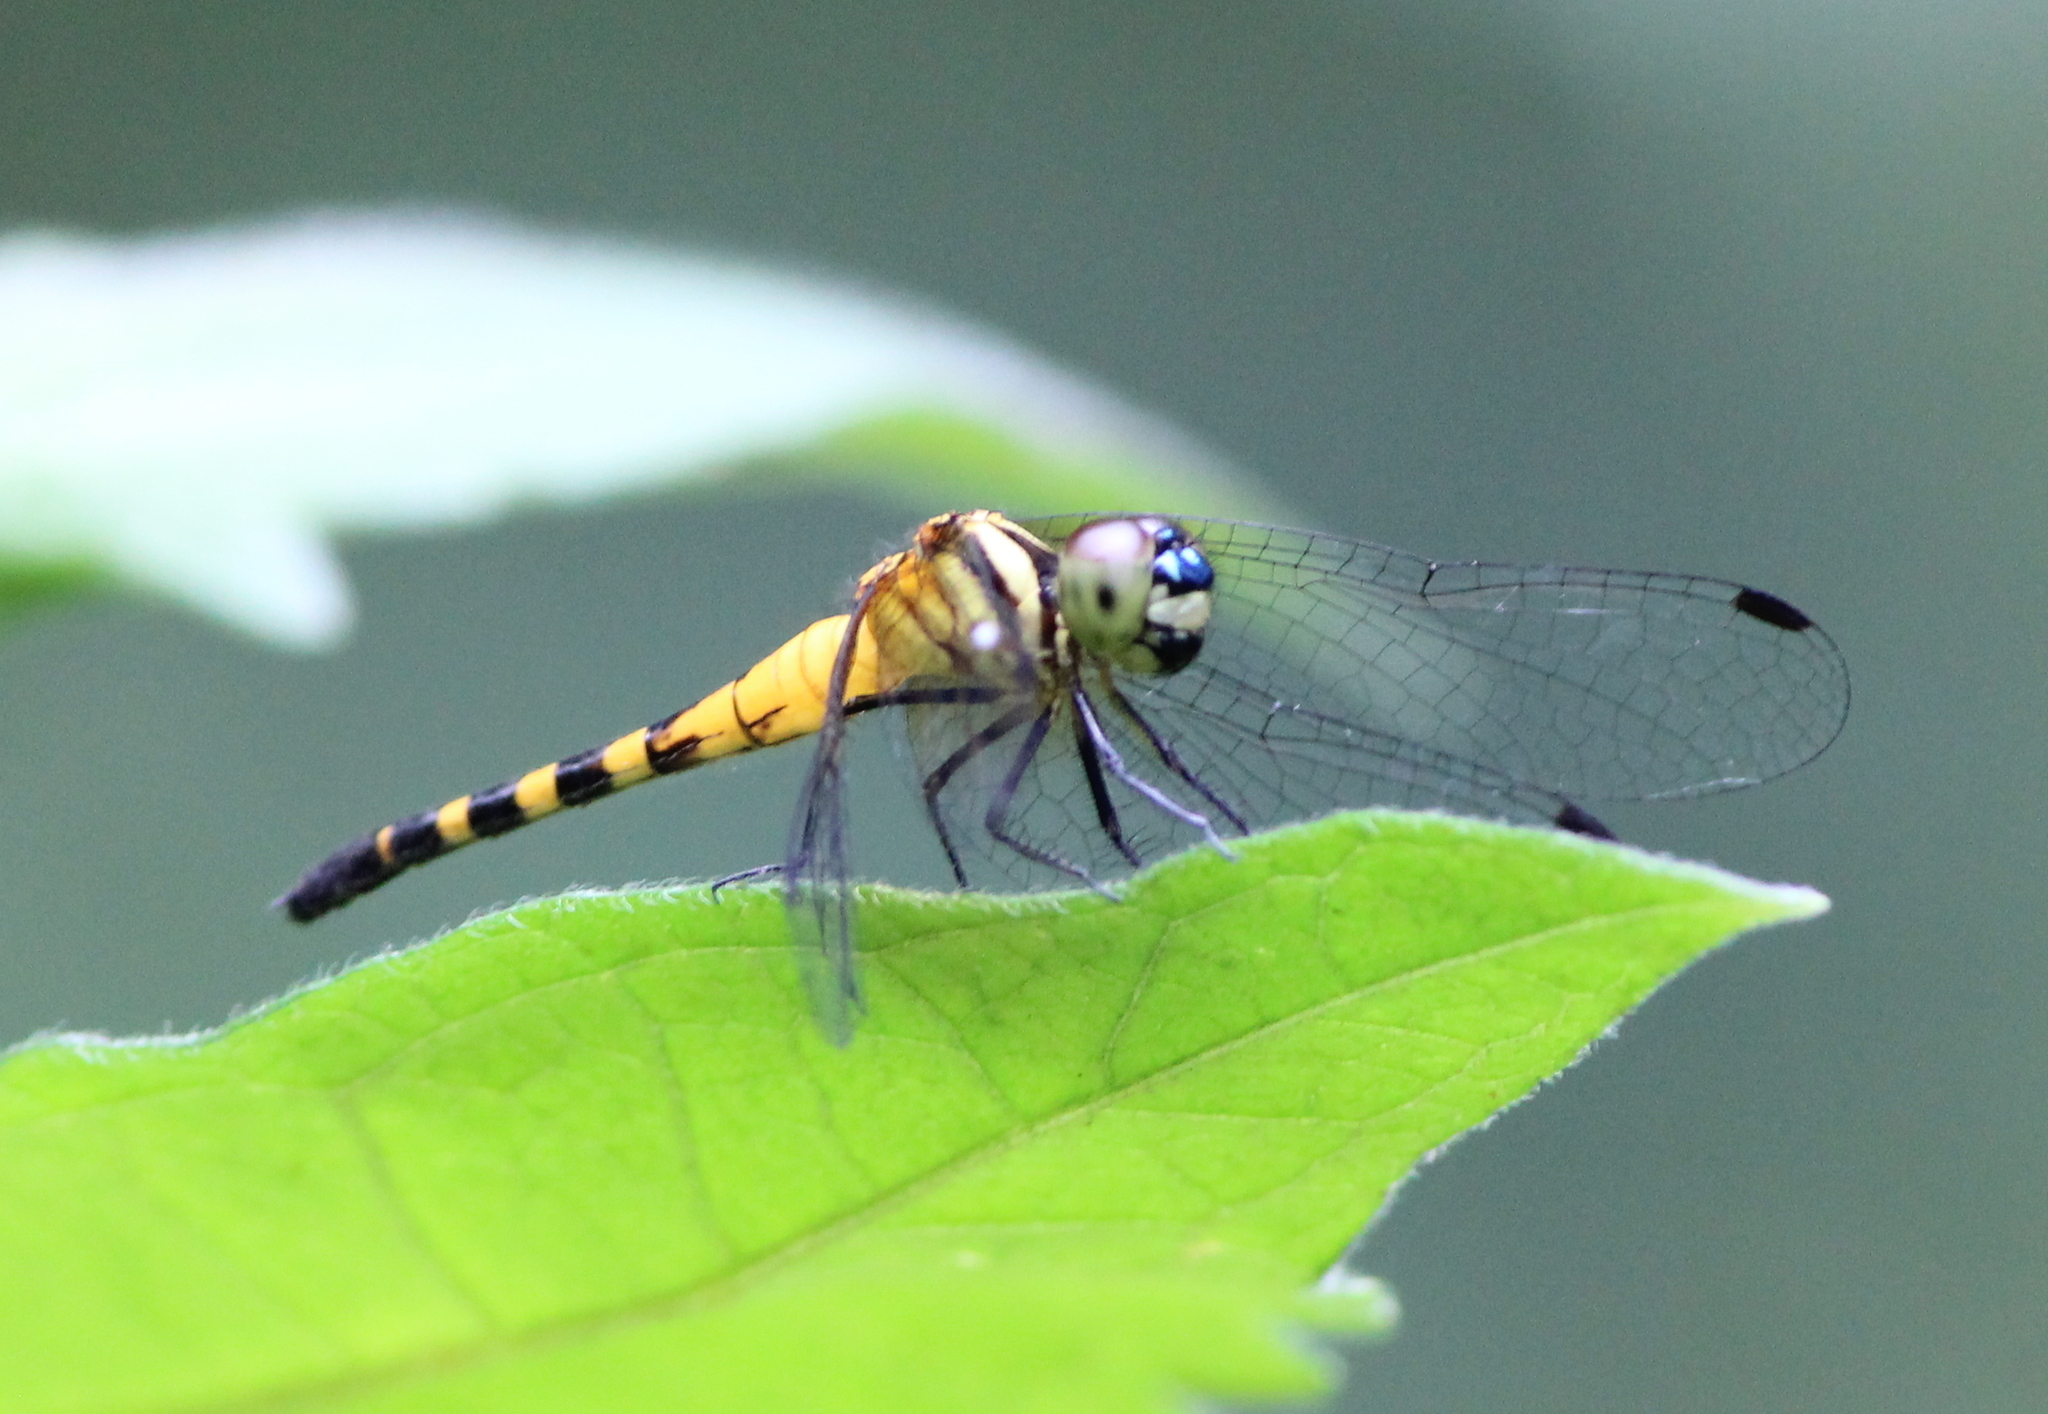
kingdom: Animalia
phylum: Arthropoda
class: Insecta
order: Odonata
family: Libellulidae
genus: Epithemis
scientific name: Epithemis mariae
